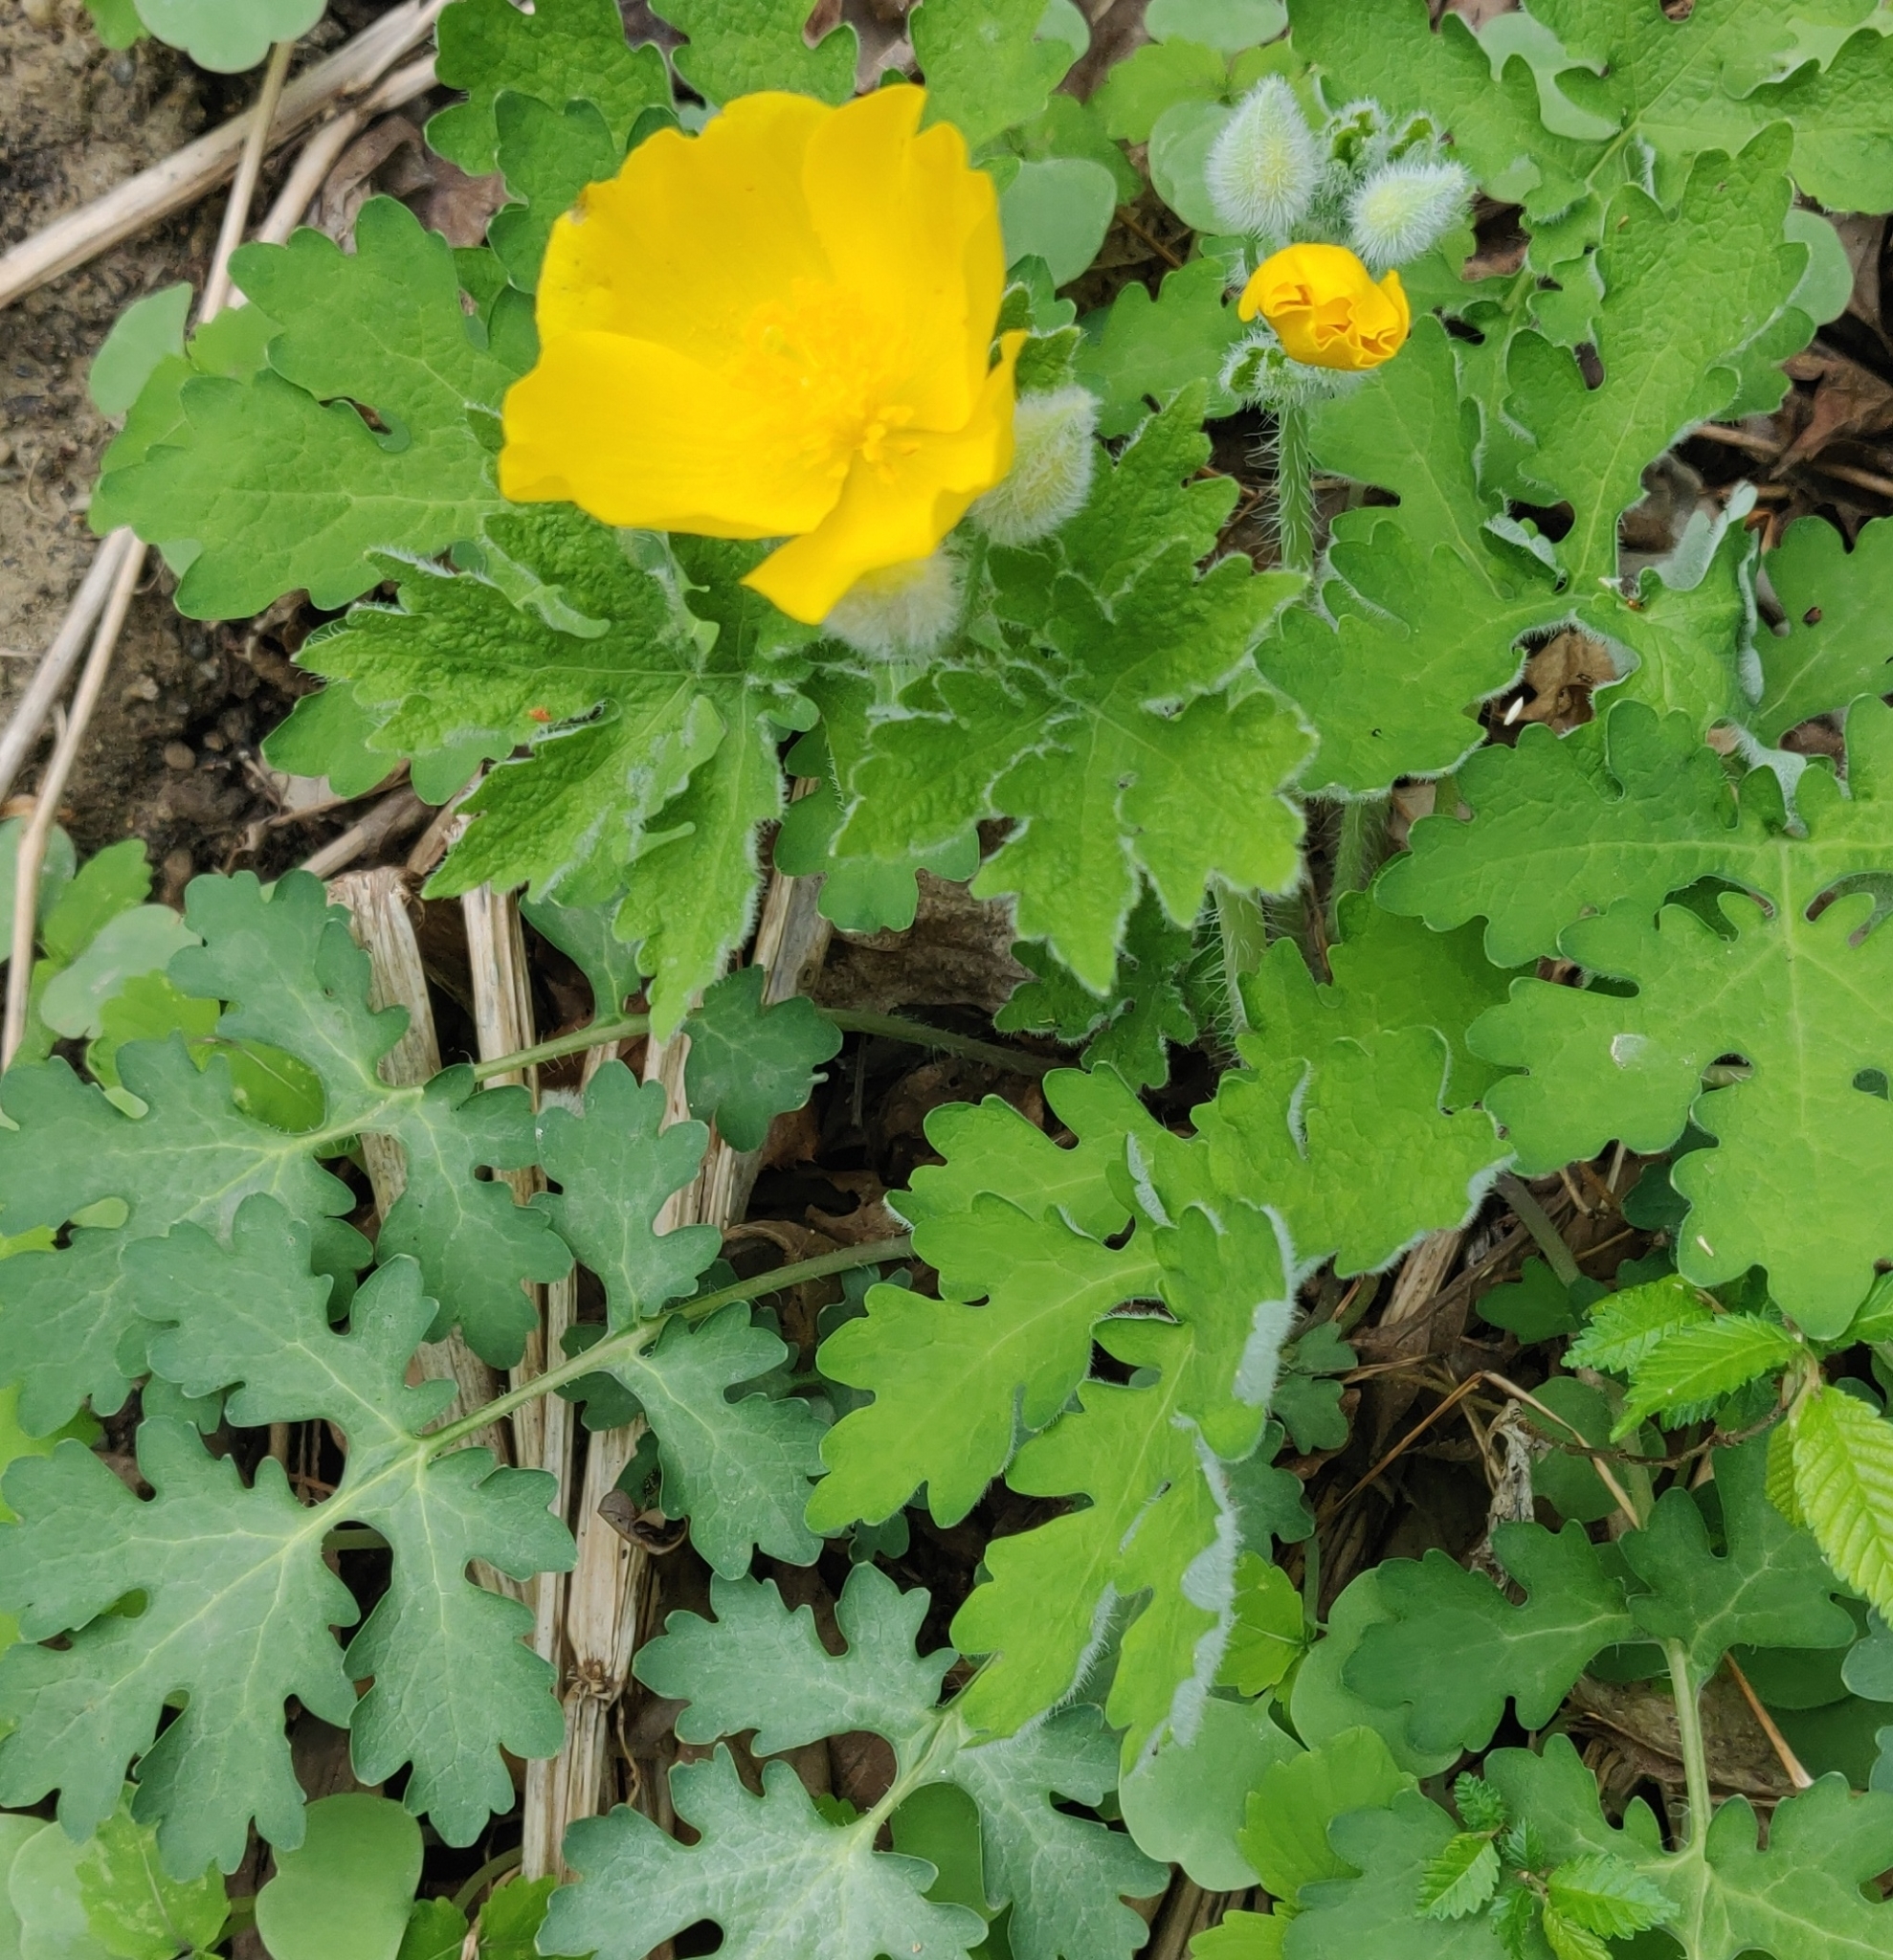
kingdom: Plantae
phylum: Tracheophyta
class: Magnoliopsida
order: Ranunculales
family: Papaveraceae
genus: Stylophorum
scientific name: Stylophorum diphyllum
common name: Celandine poppy
